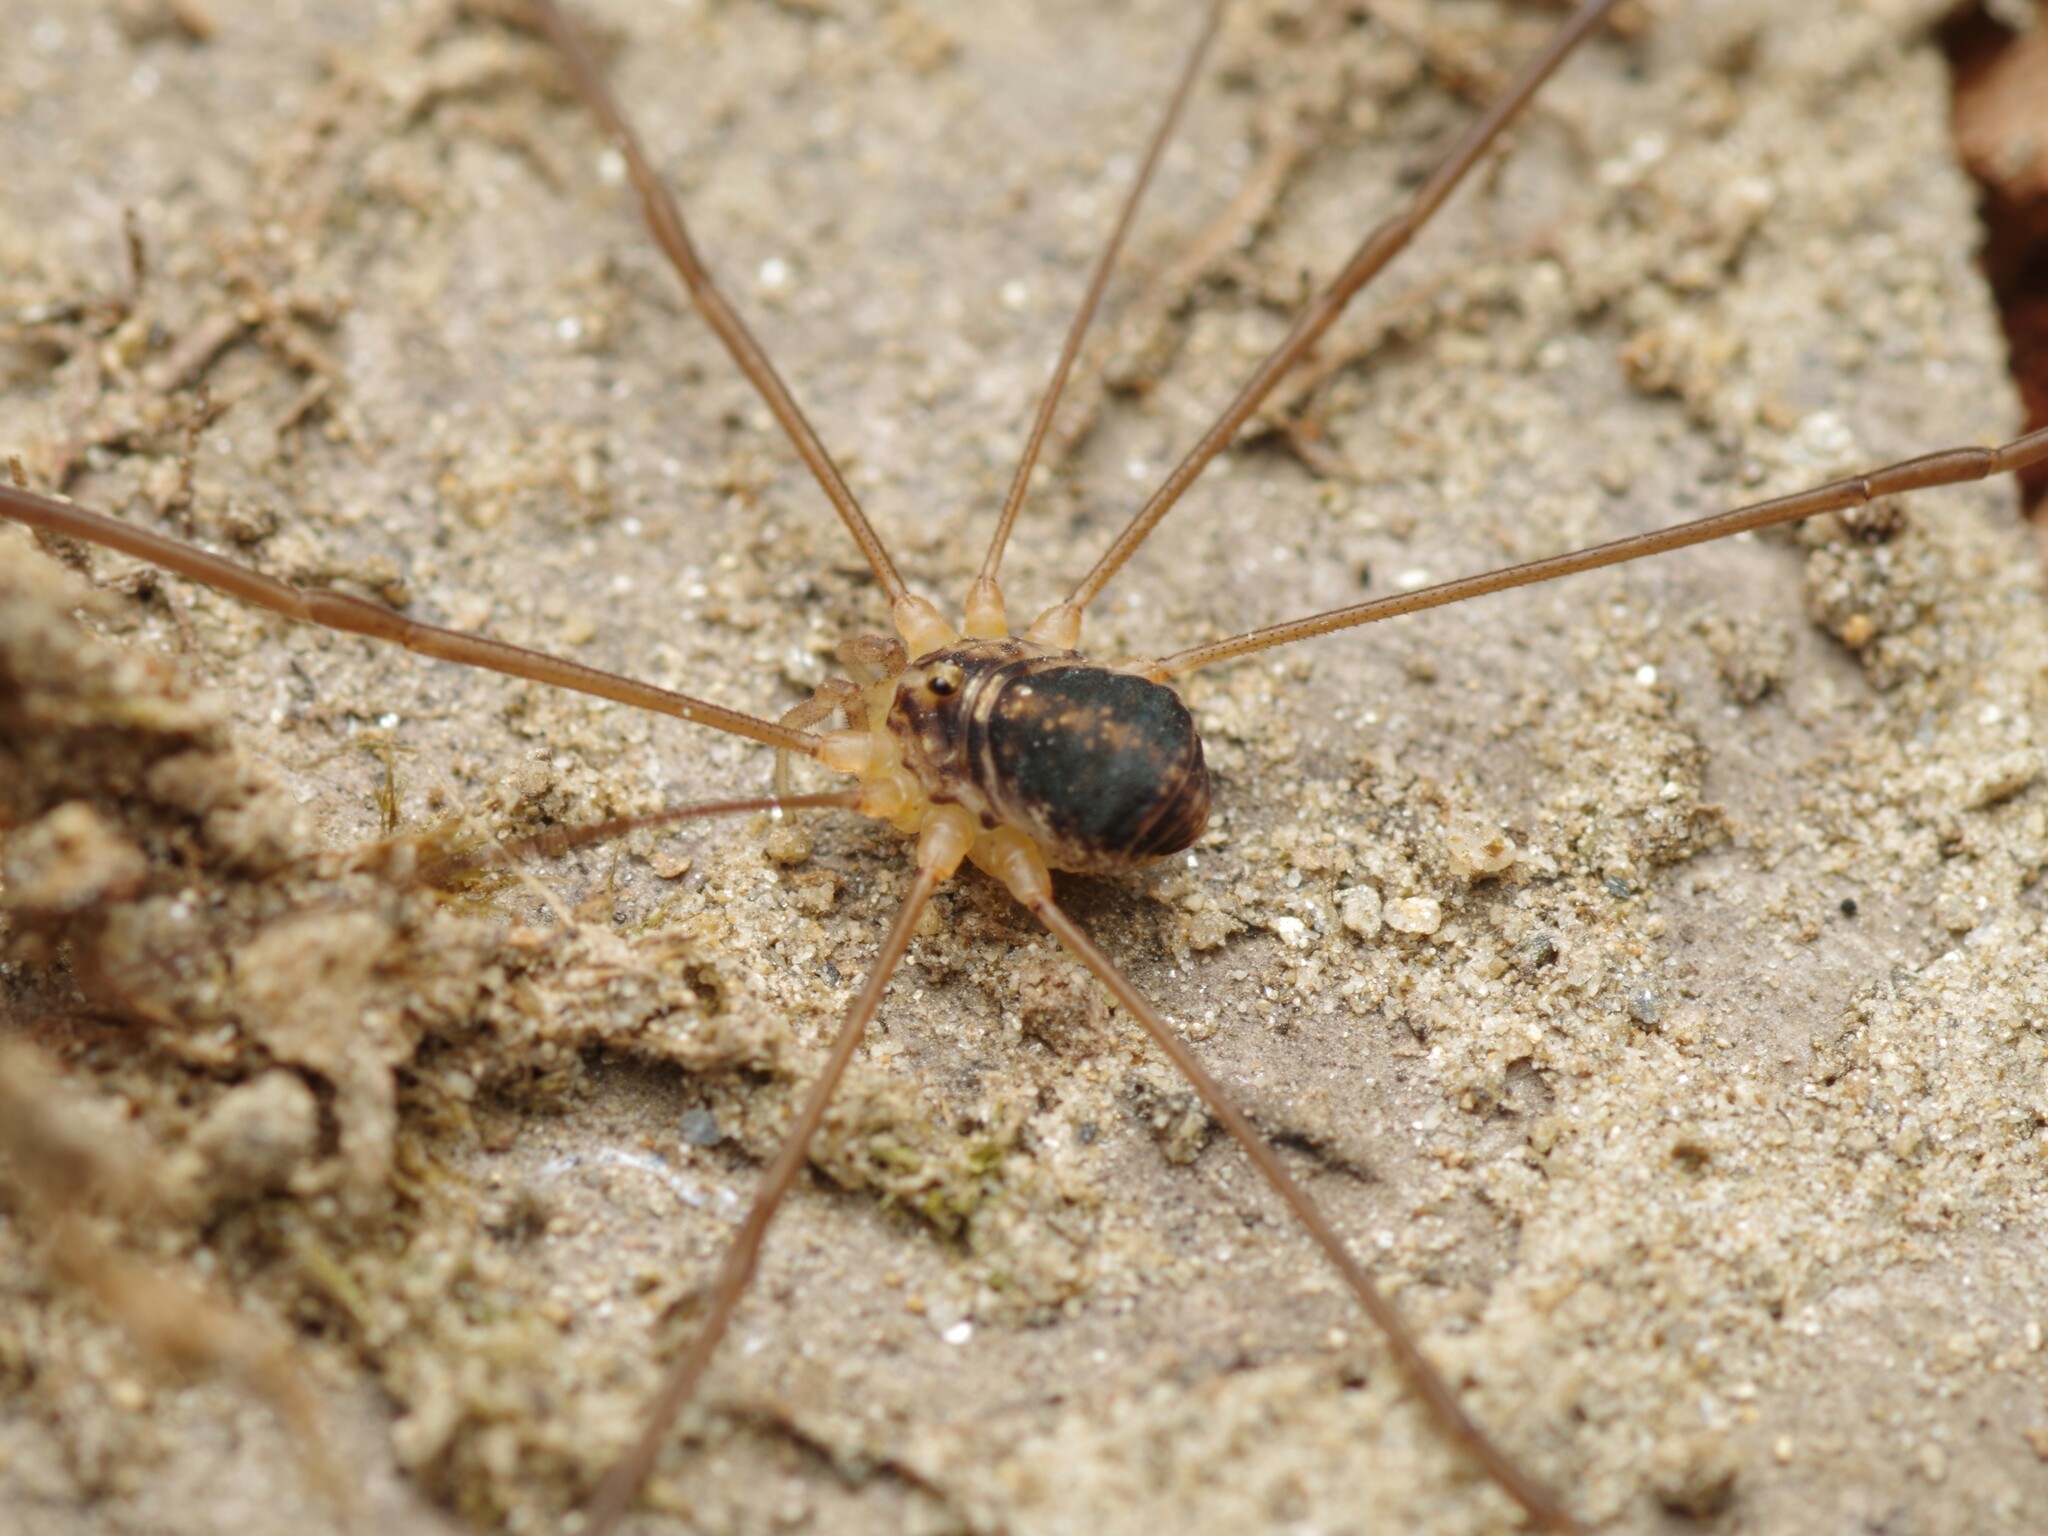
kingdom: Animalia
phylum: Arthropoda
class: Arachnida
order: Opiliones
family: Sclerosomatidae
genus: Nelima
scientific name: Nelima silvatica
